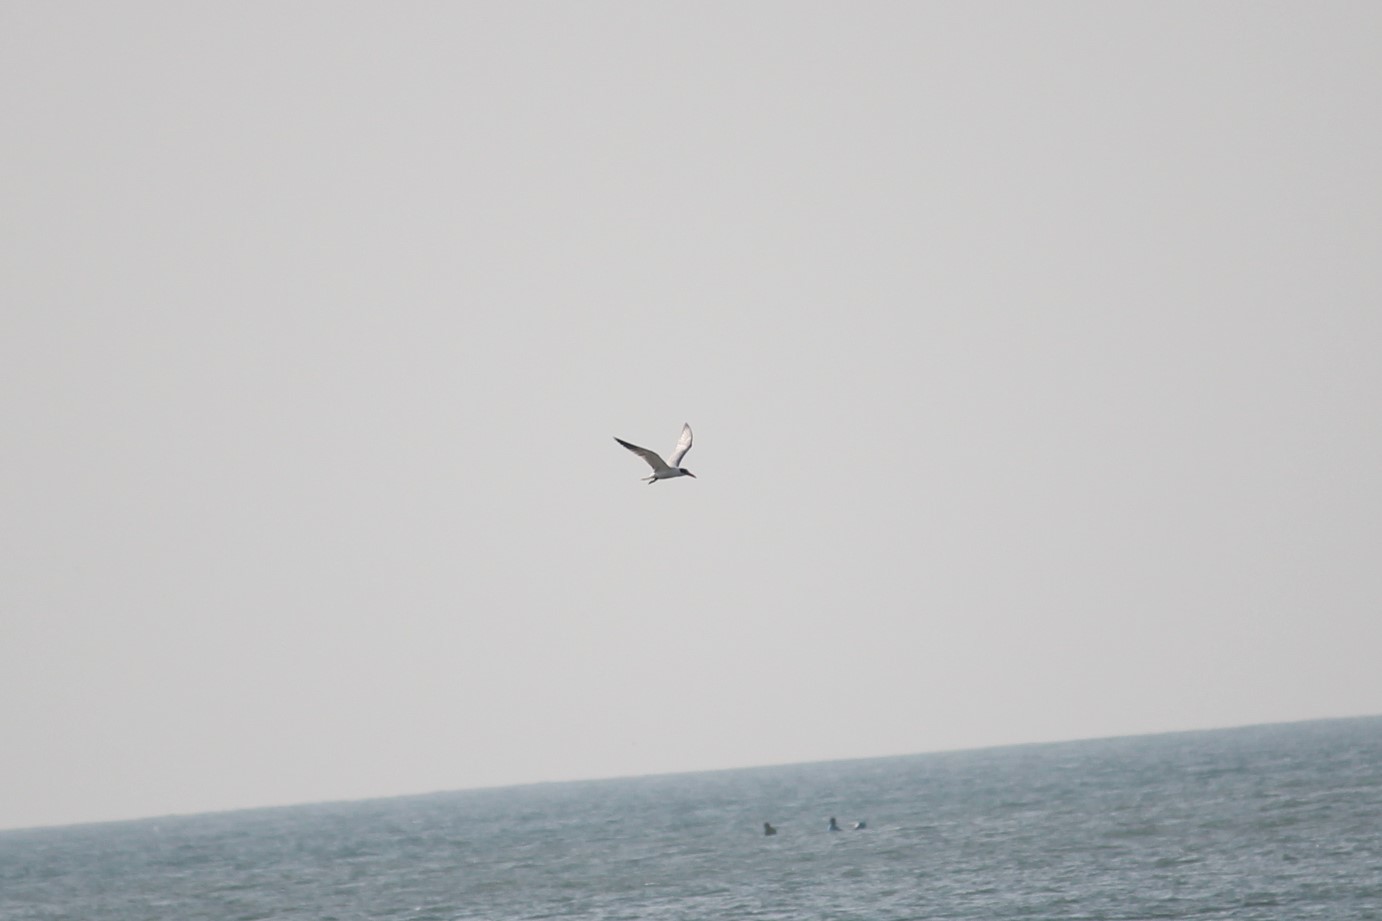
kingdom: Animalia
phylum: Chordata
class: Aves
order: Charadriiformes
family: Laridae
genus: Hydroprogne
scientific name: Hydroprogne caspia
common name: Caspian tern
